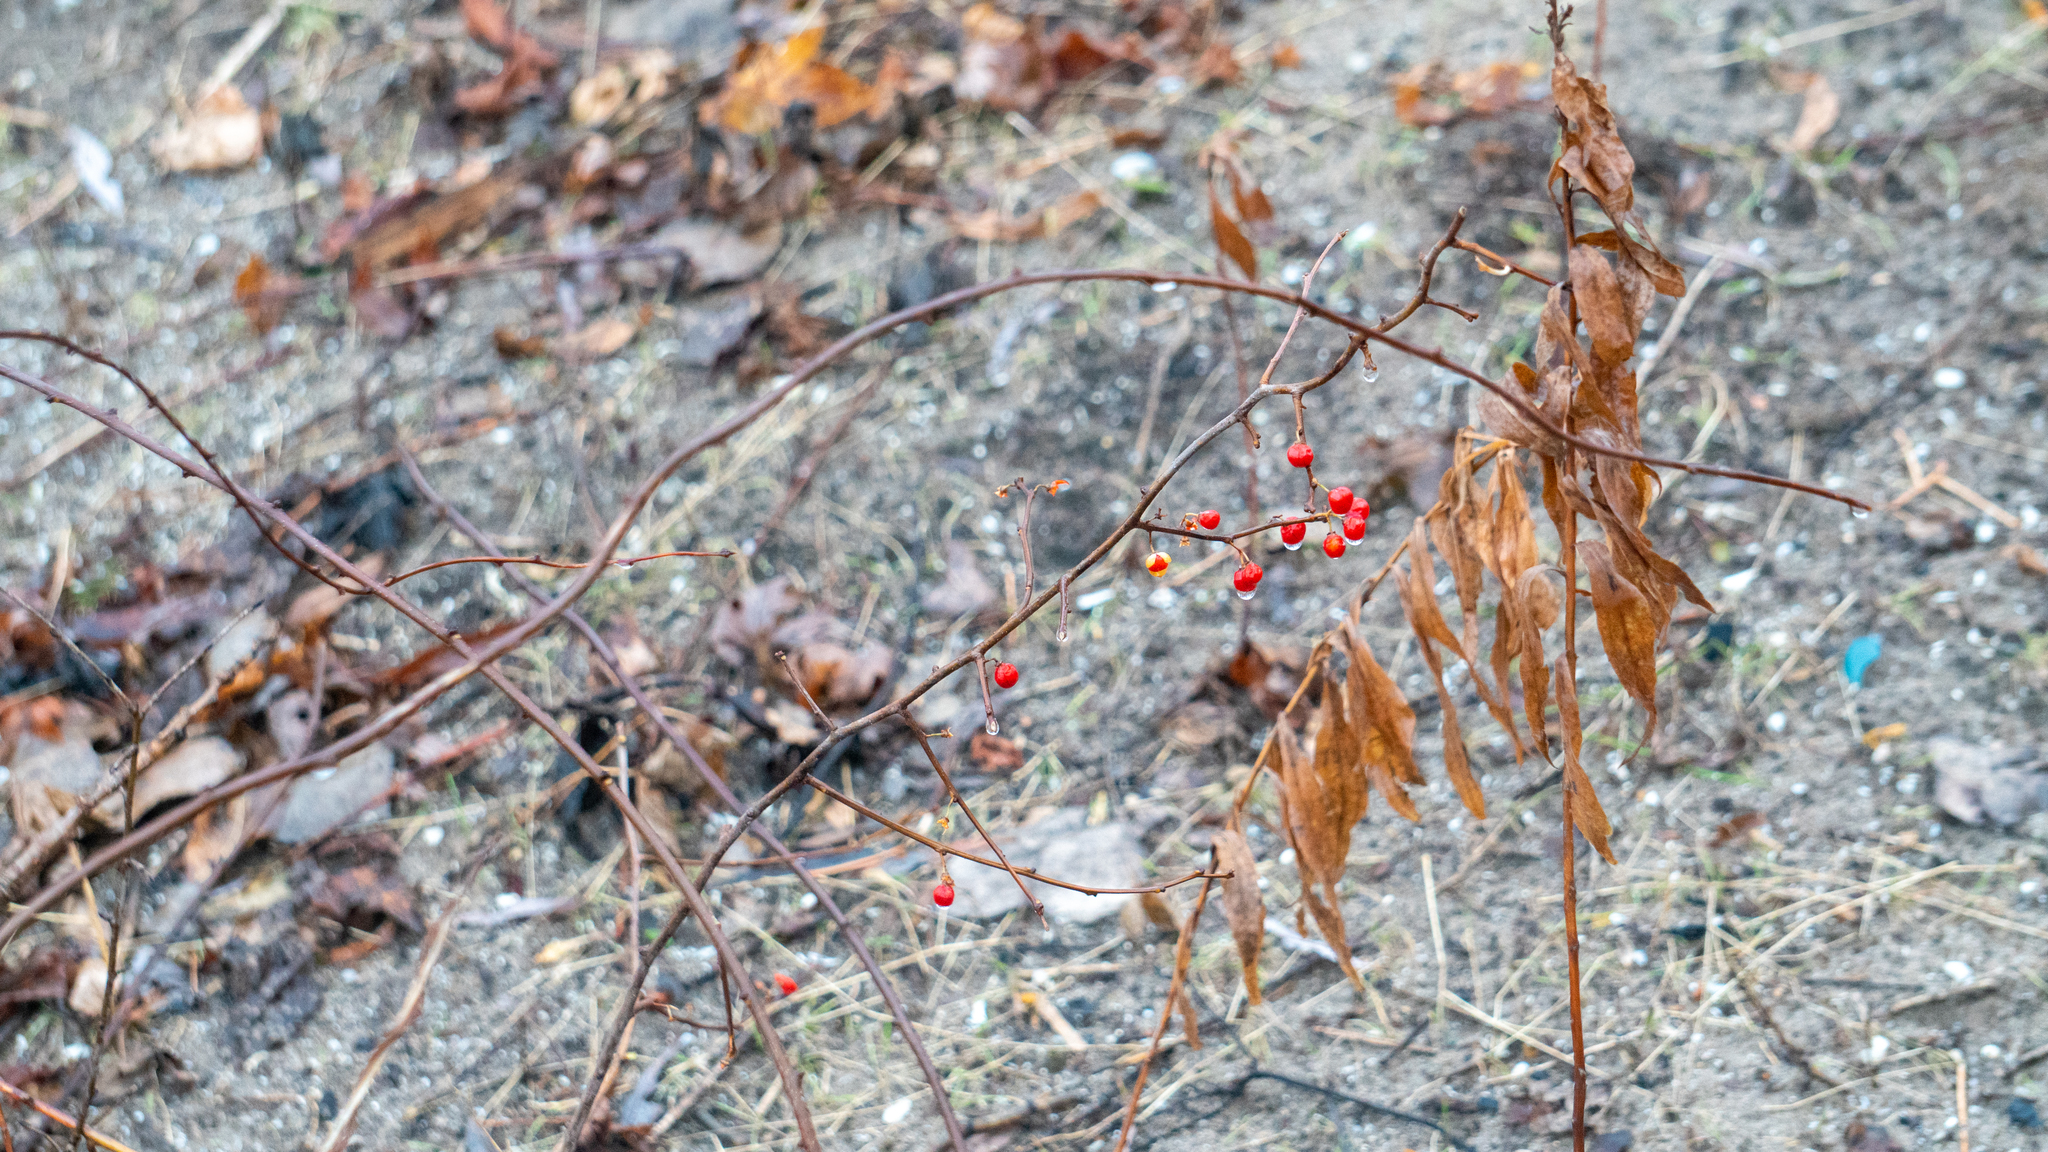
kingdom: Plantae
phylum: Tracheophyta
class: Magnoliopsida
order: Celastrales
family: Celastraceae
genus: Celastrus
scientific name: Celastrus orbiculatus
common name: Oriental bittersweet
